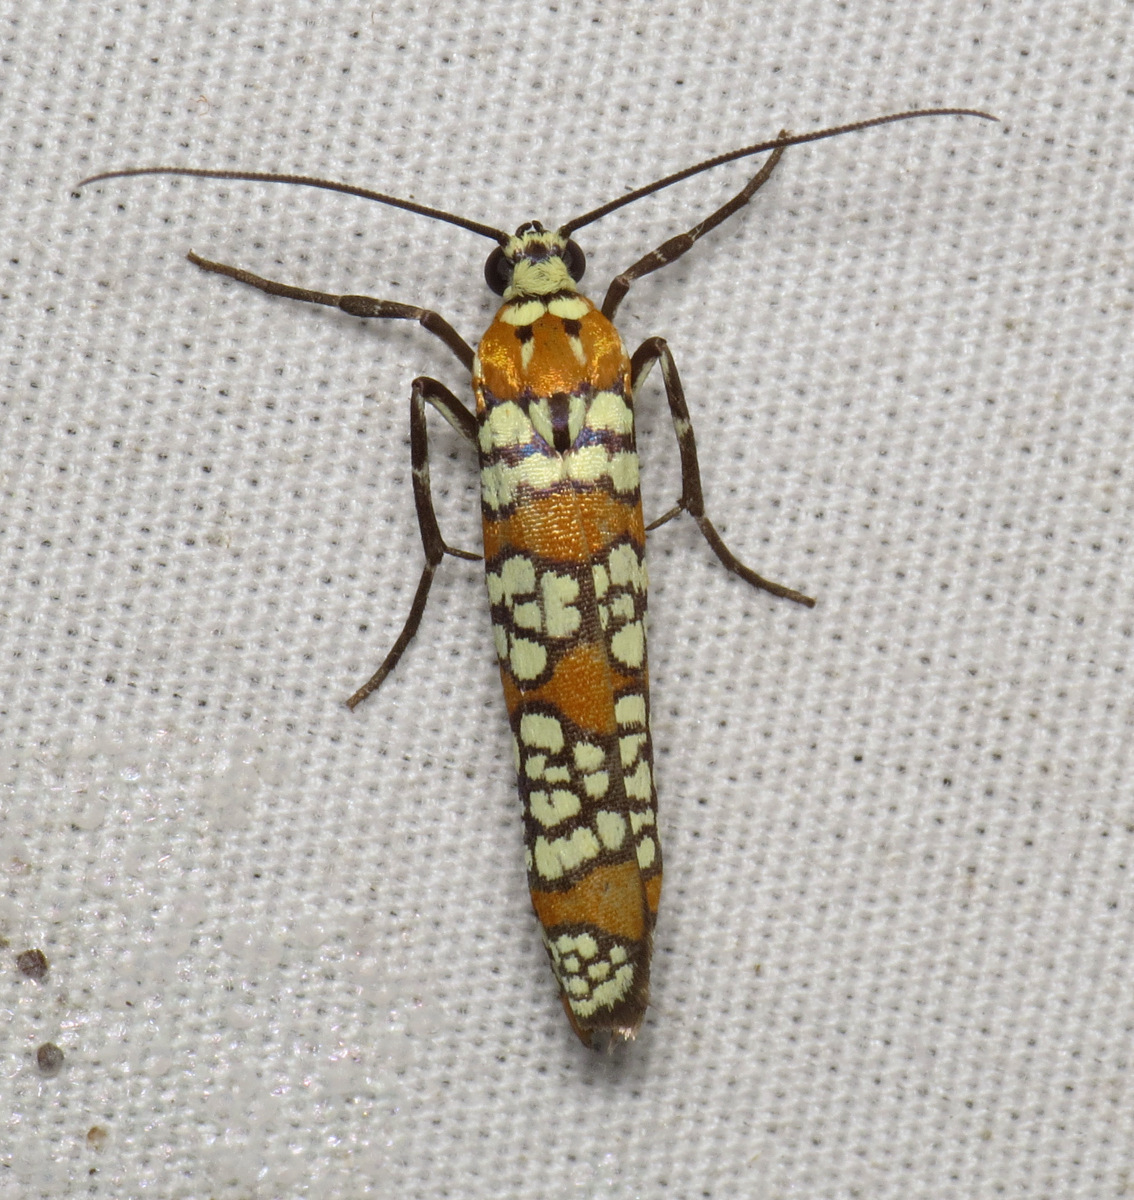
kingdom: Animalia
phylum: Arthropoda
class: Insecta
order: Lepidoptera
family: Attevidae
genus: Atteva
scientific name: Atteva punctella
